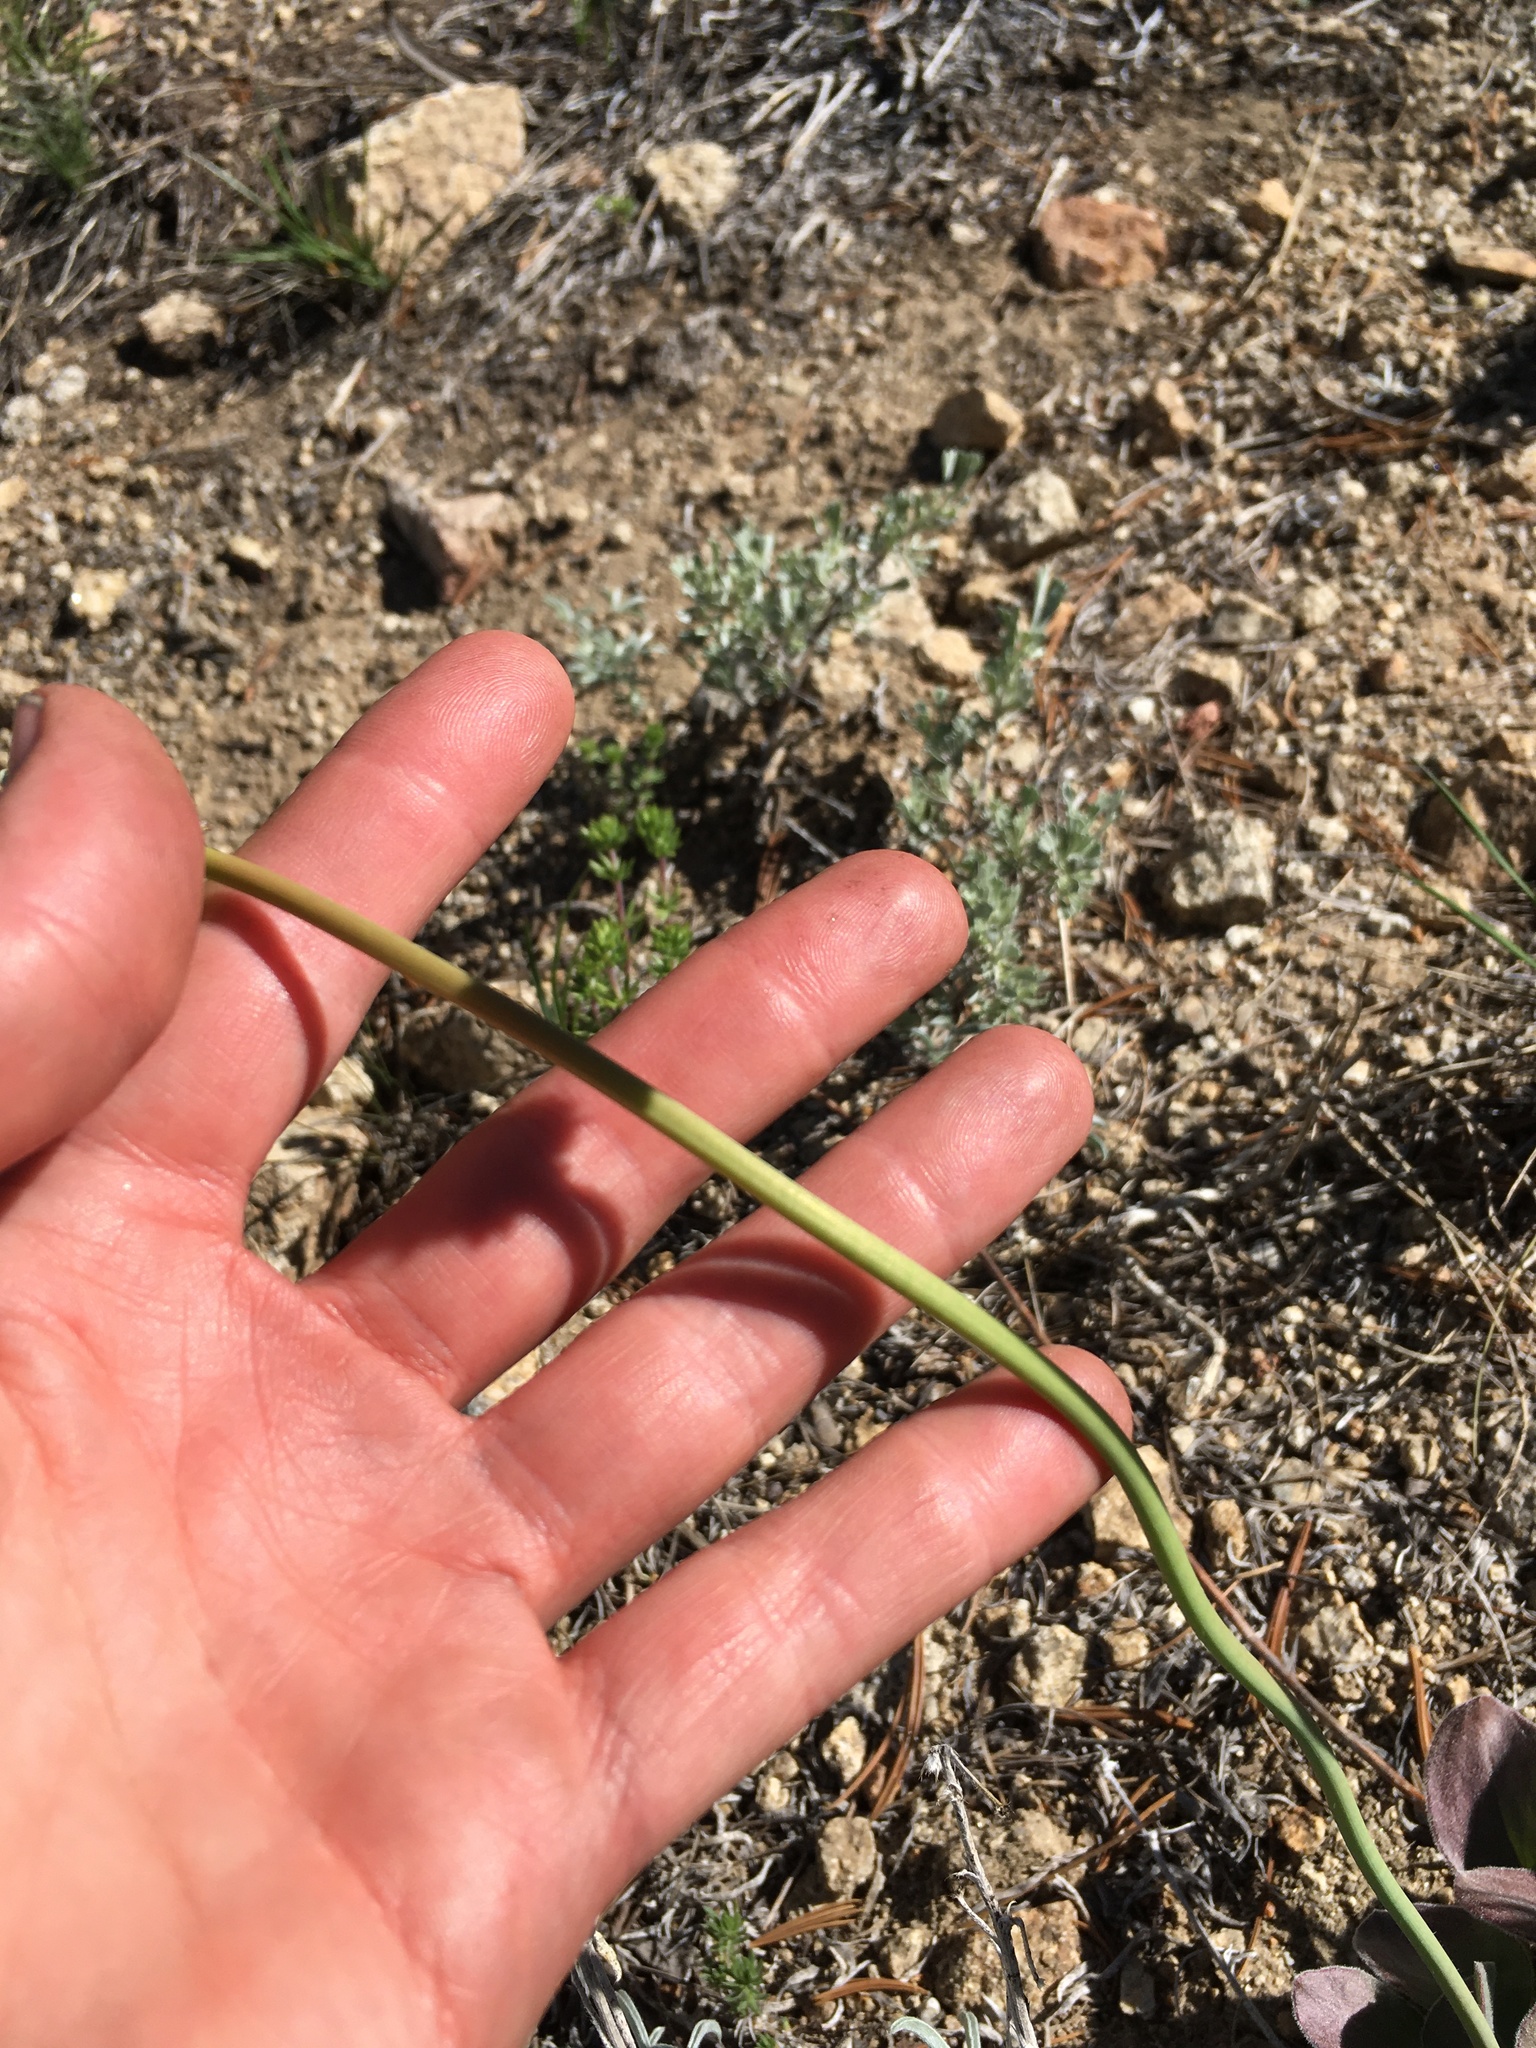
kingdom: Plantae
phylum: Tracheophyta
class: Magnoliopsida
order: Caryophyllales
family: Polygonaceae
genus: Eriogonum
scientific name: Eriogonum latens
